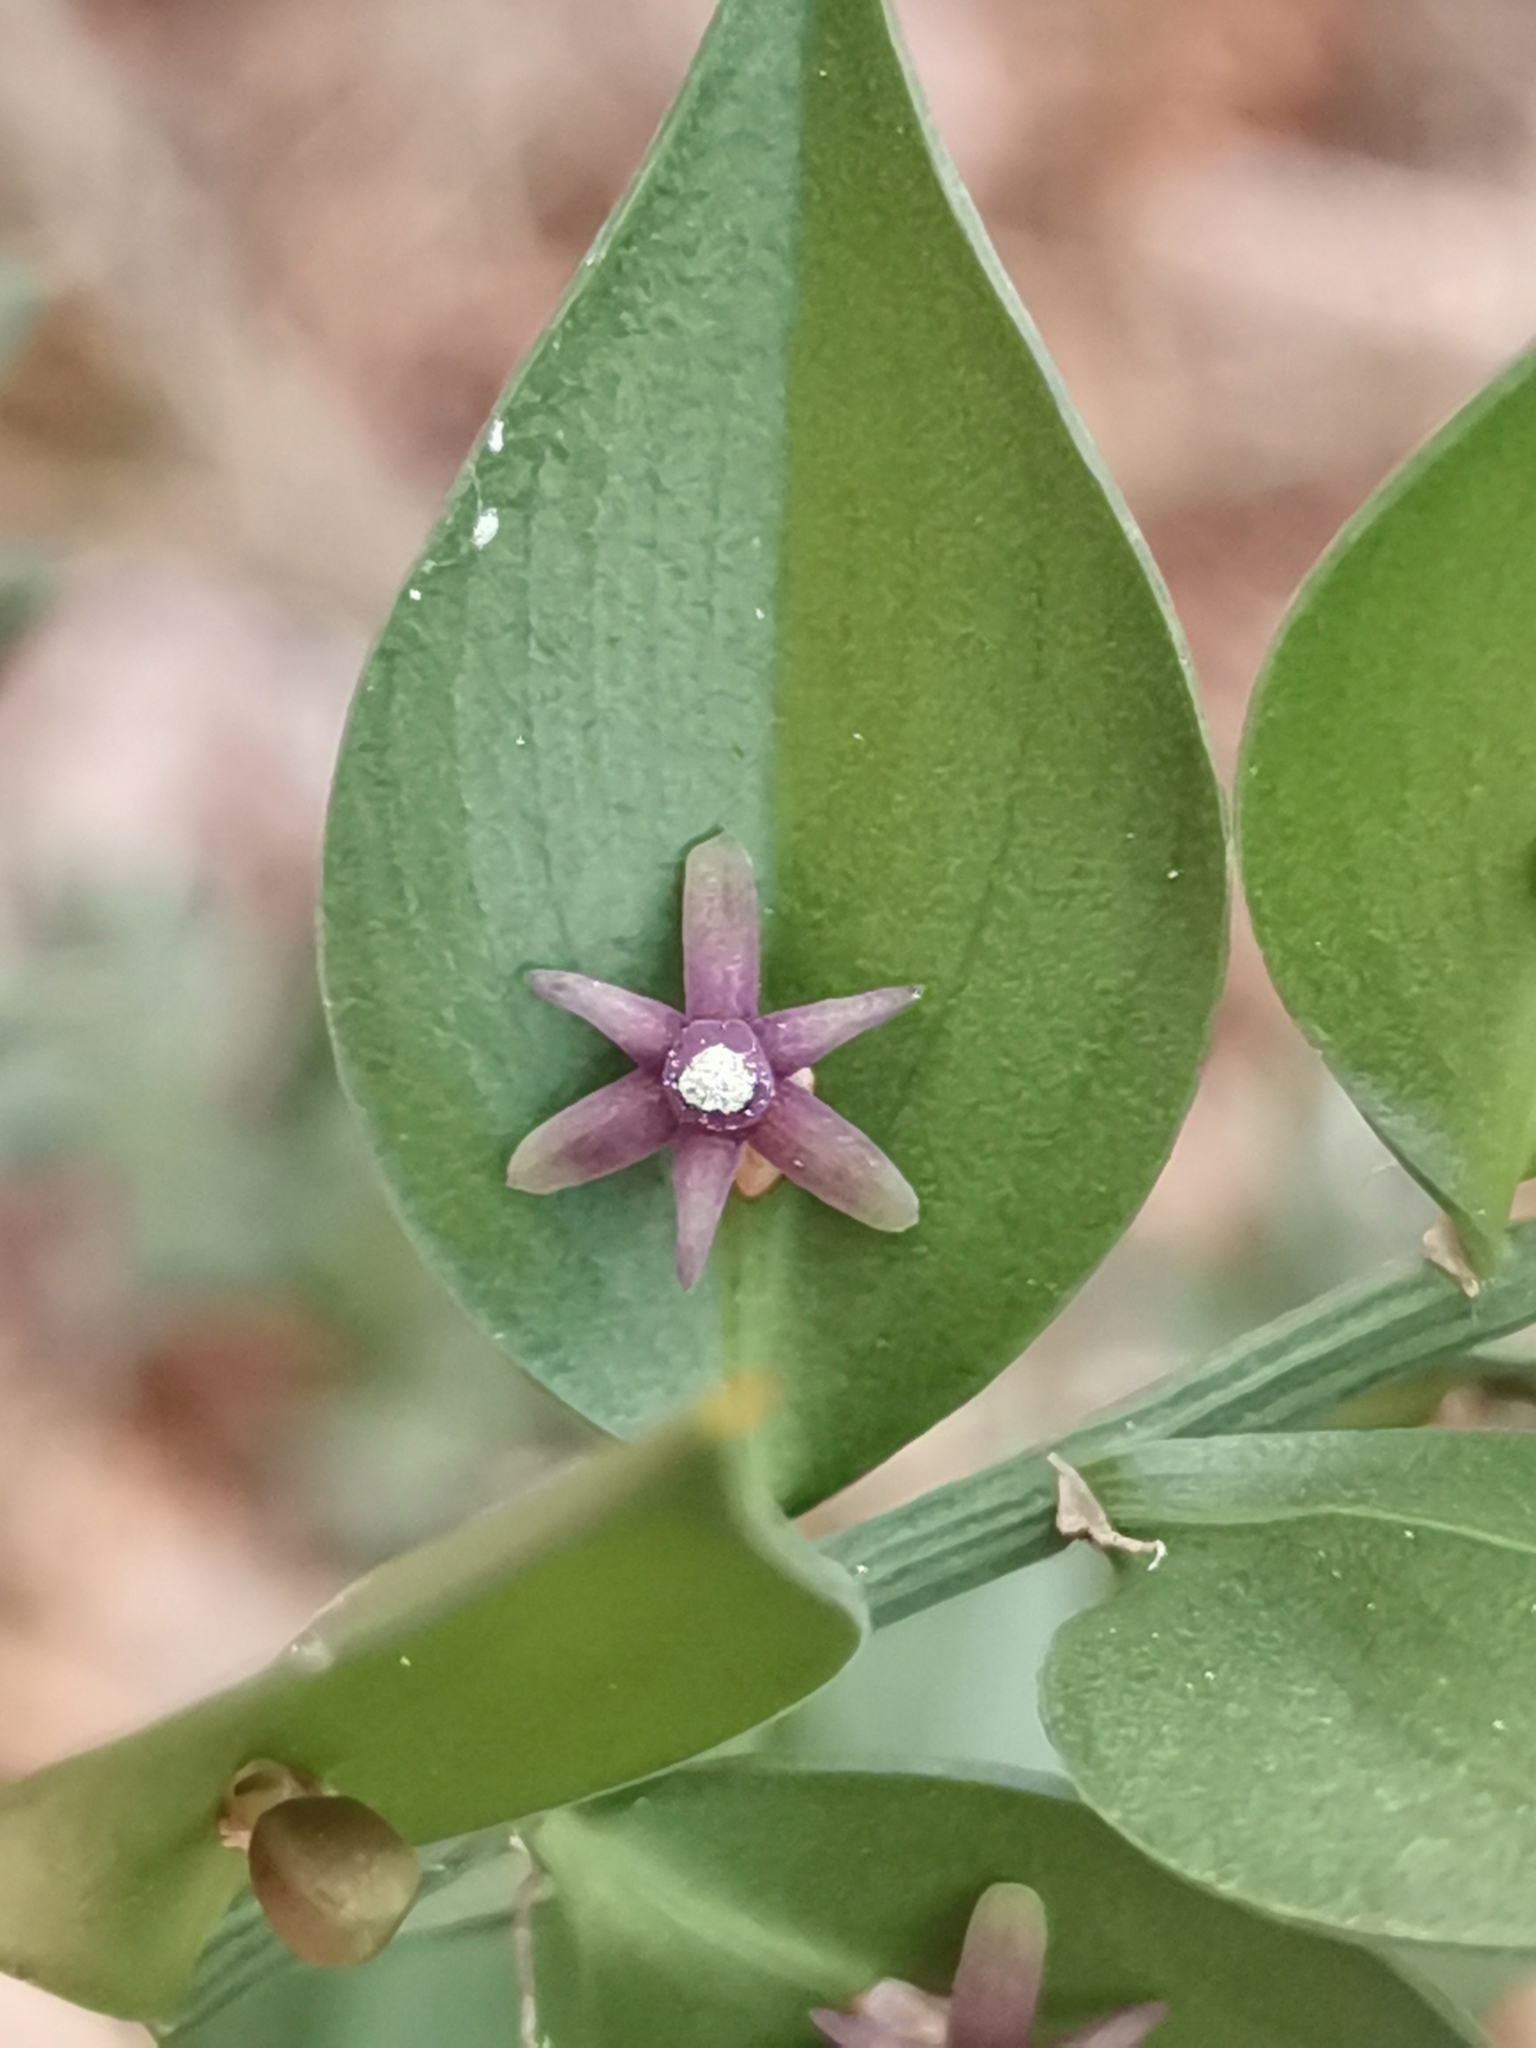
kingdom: Plantae
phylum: Tracheophyta
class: Liliopsida
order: Asparagales
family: Asparagaceae
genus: Ruscus
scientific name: Ruscus aculeatus
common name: Butcher's-broom
